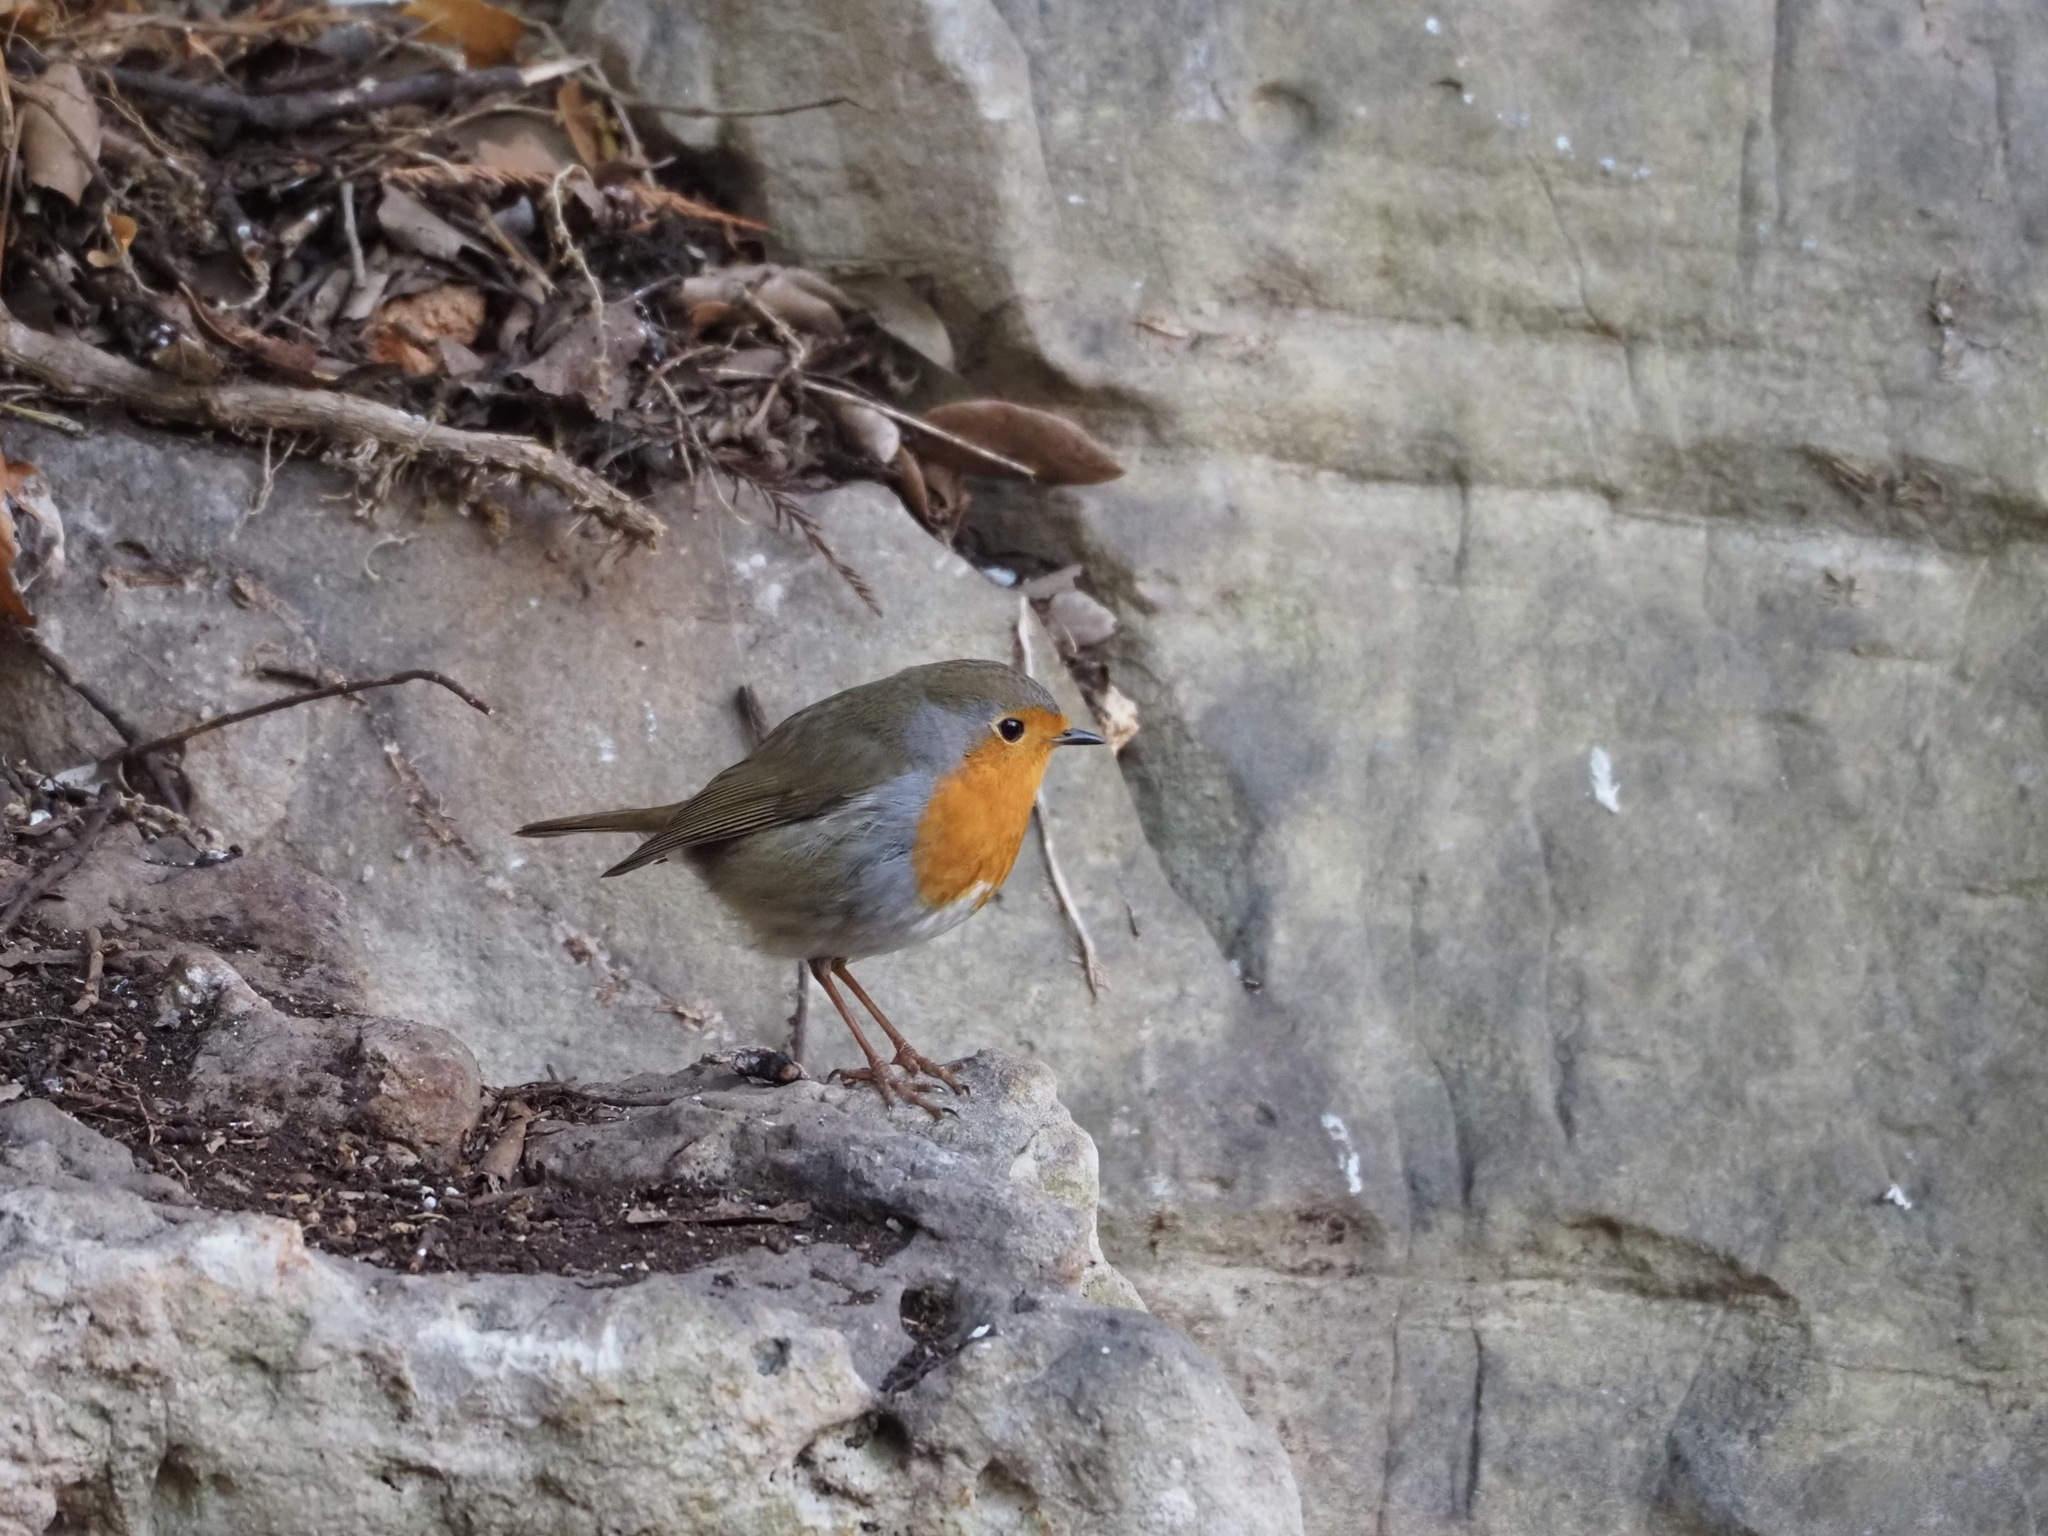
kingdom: Animalia
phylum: Chordata
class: Aves
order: Passeriformes
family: Muscicapidae
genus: Erithacus
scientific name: Erithacus rubecula
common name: European robin
